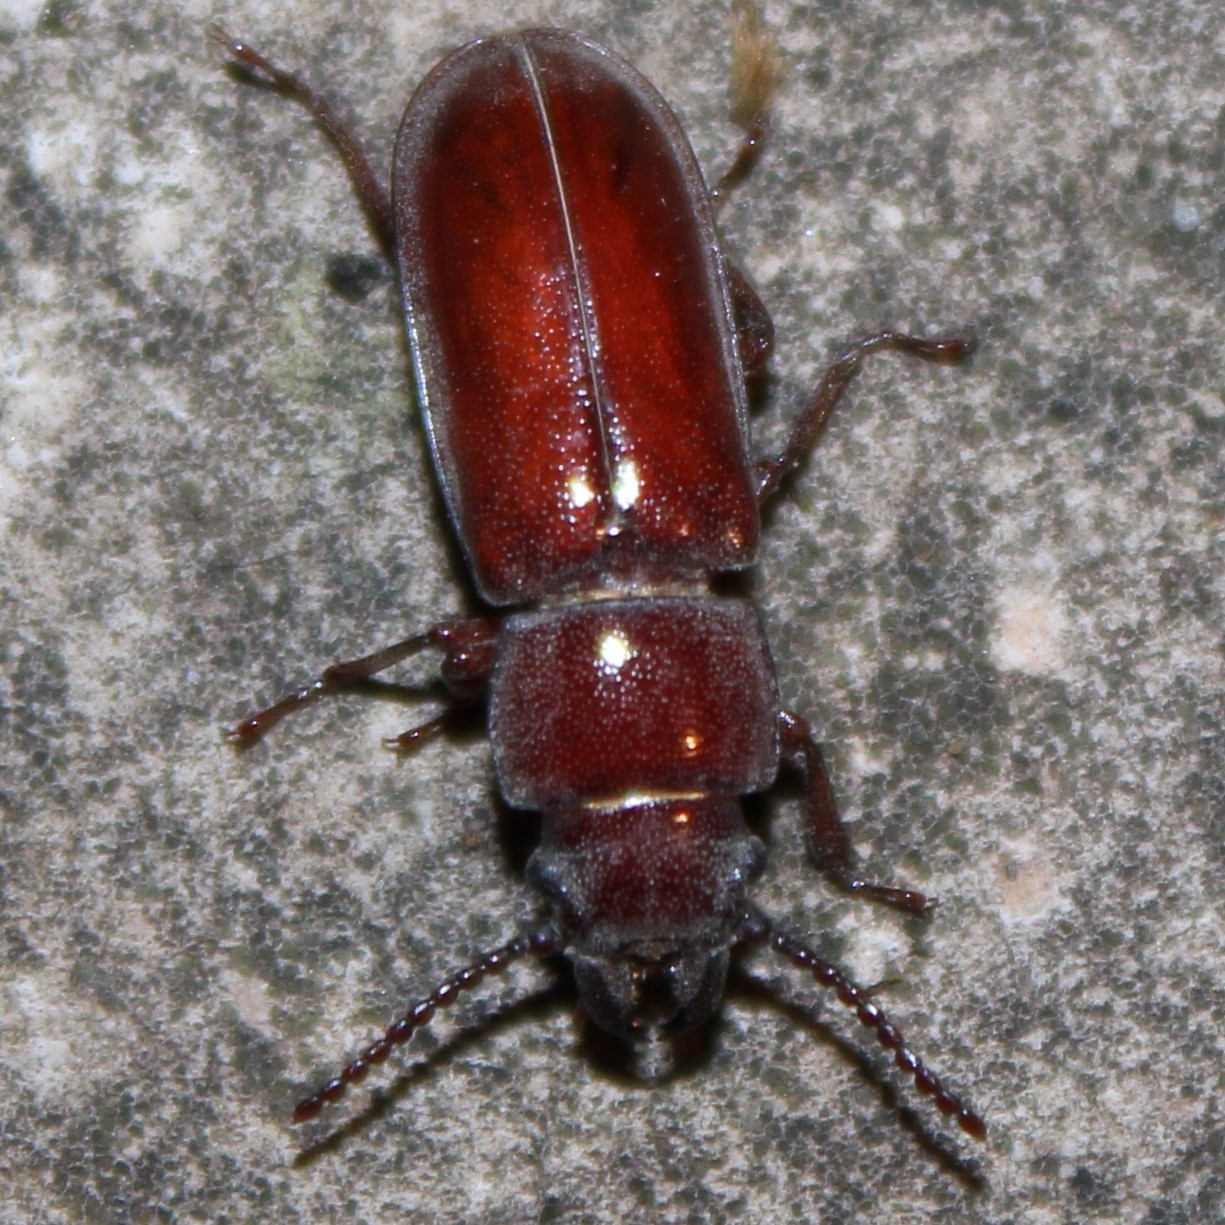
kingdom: Animalia
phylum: Arthropoda
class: Insecta
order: Coleoptera
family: Cerambycidae
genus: Neandra
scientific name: Neandra brunnea
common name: Pole borer
